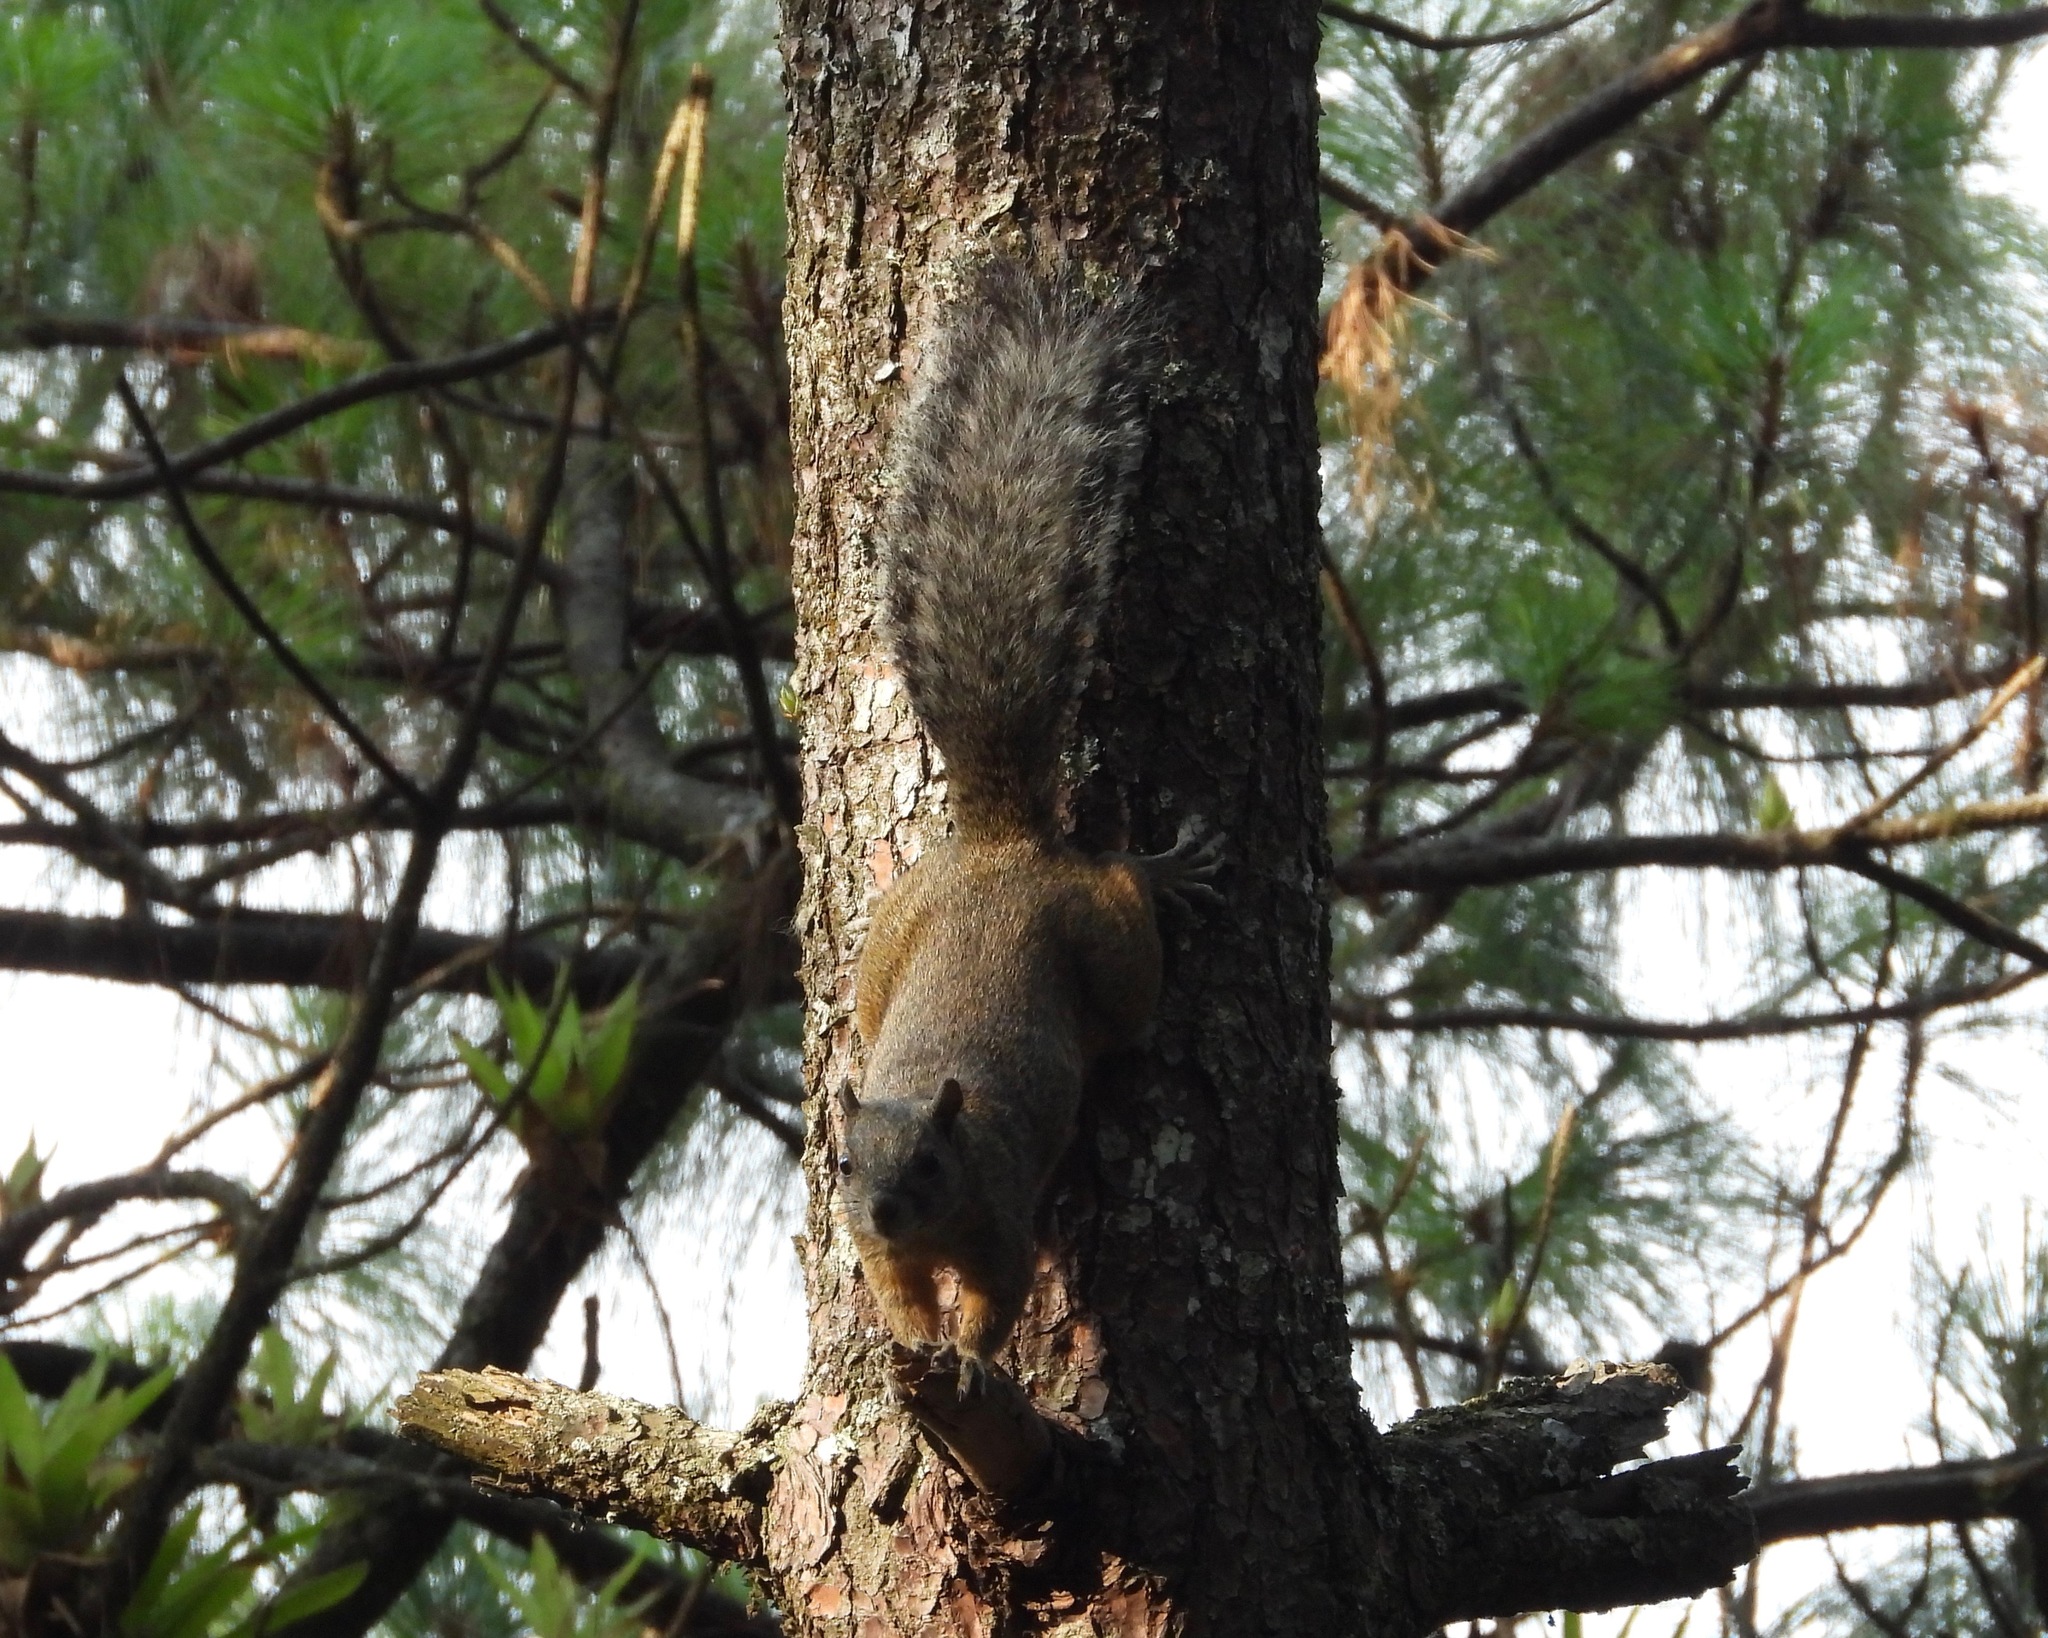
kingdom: Animalia
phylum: Chordata
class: Mammalia
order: Rodentia
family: Sciuridae
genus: Sciurus
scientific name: Sciurus aureogaster
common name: Red-bellied squirrel
